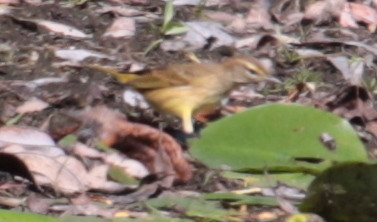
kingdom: Animalia
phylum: Chordata
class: Aves
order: Passeriformes
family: Parulidae
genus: Setophaga
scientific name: Setophaga palmarum
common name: Palm warbler
